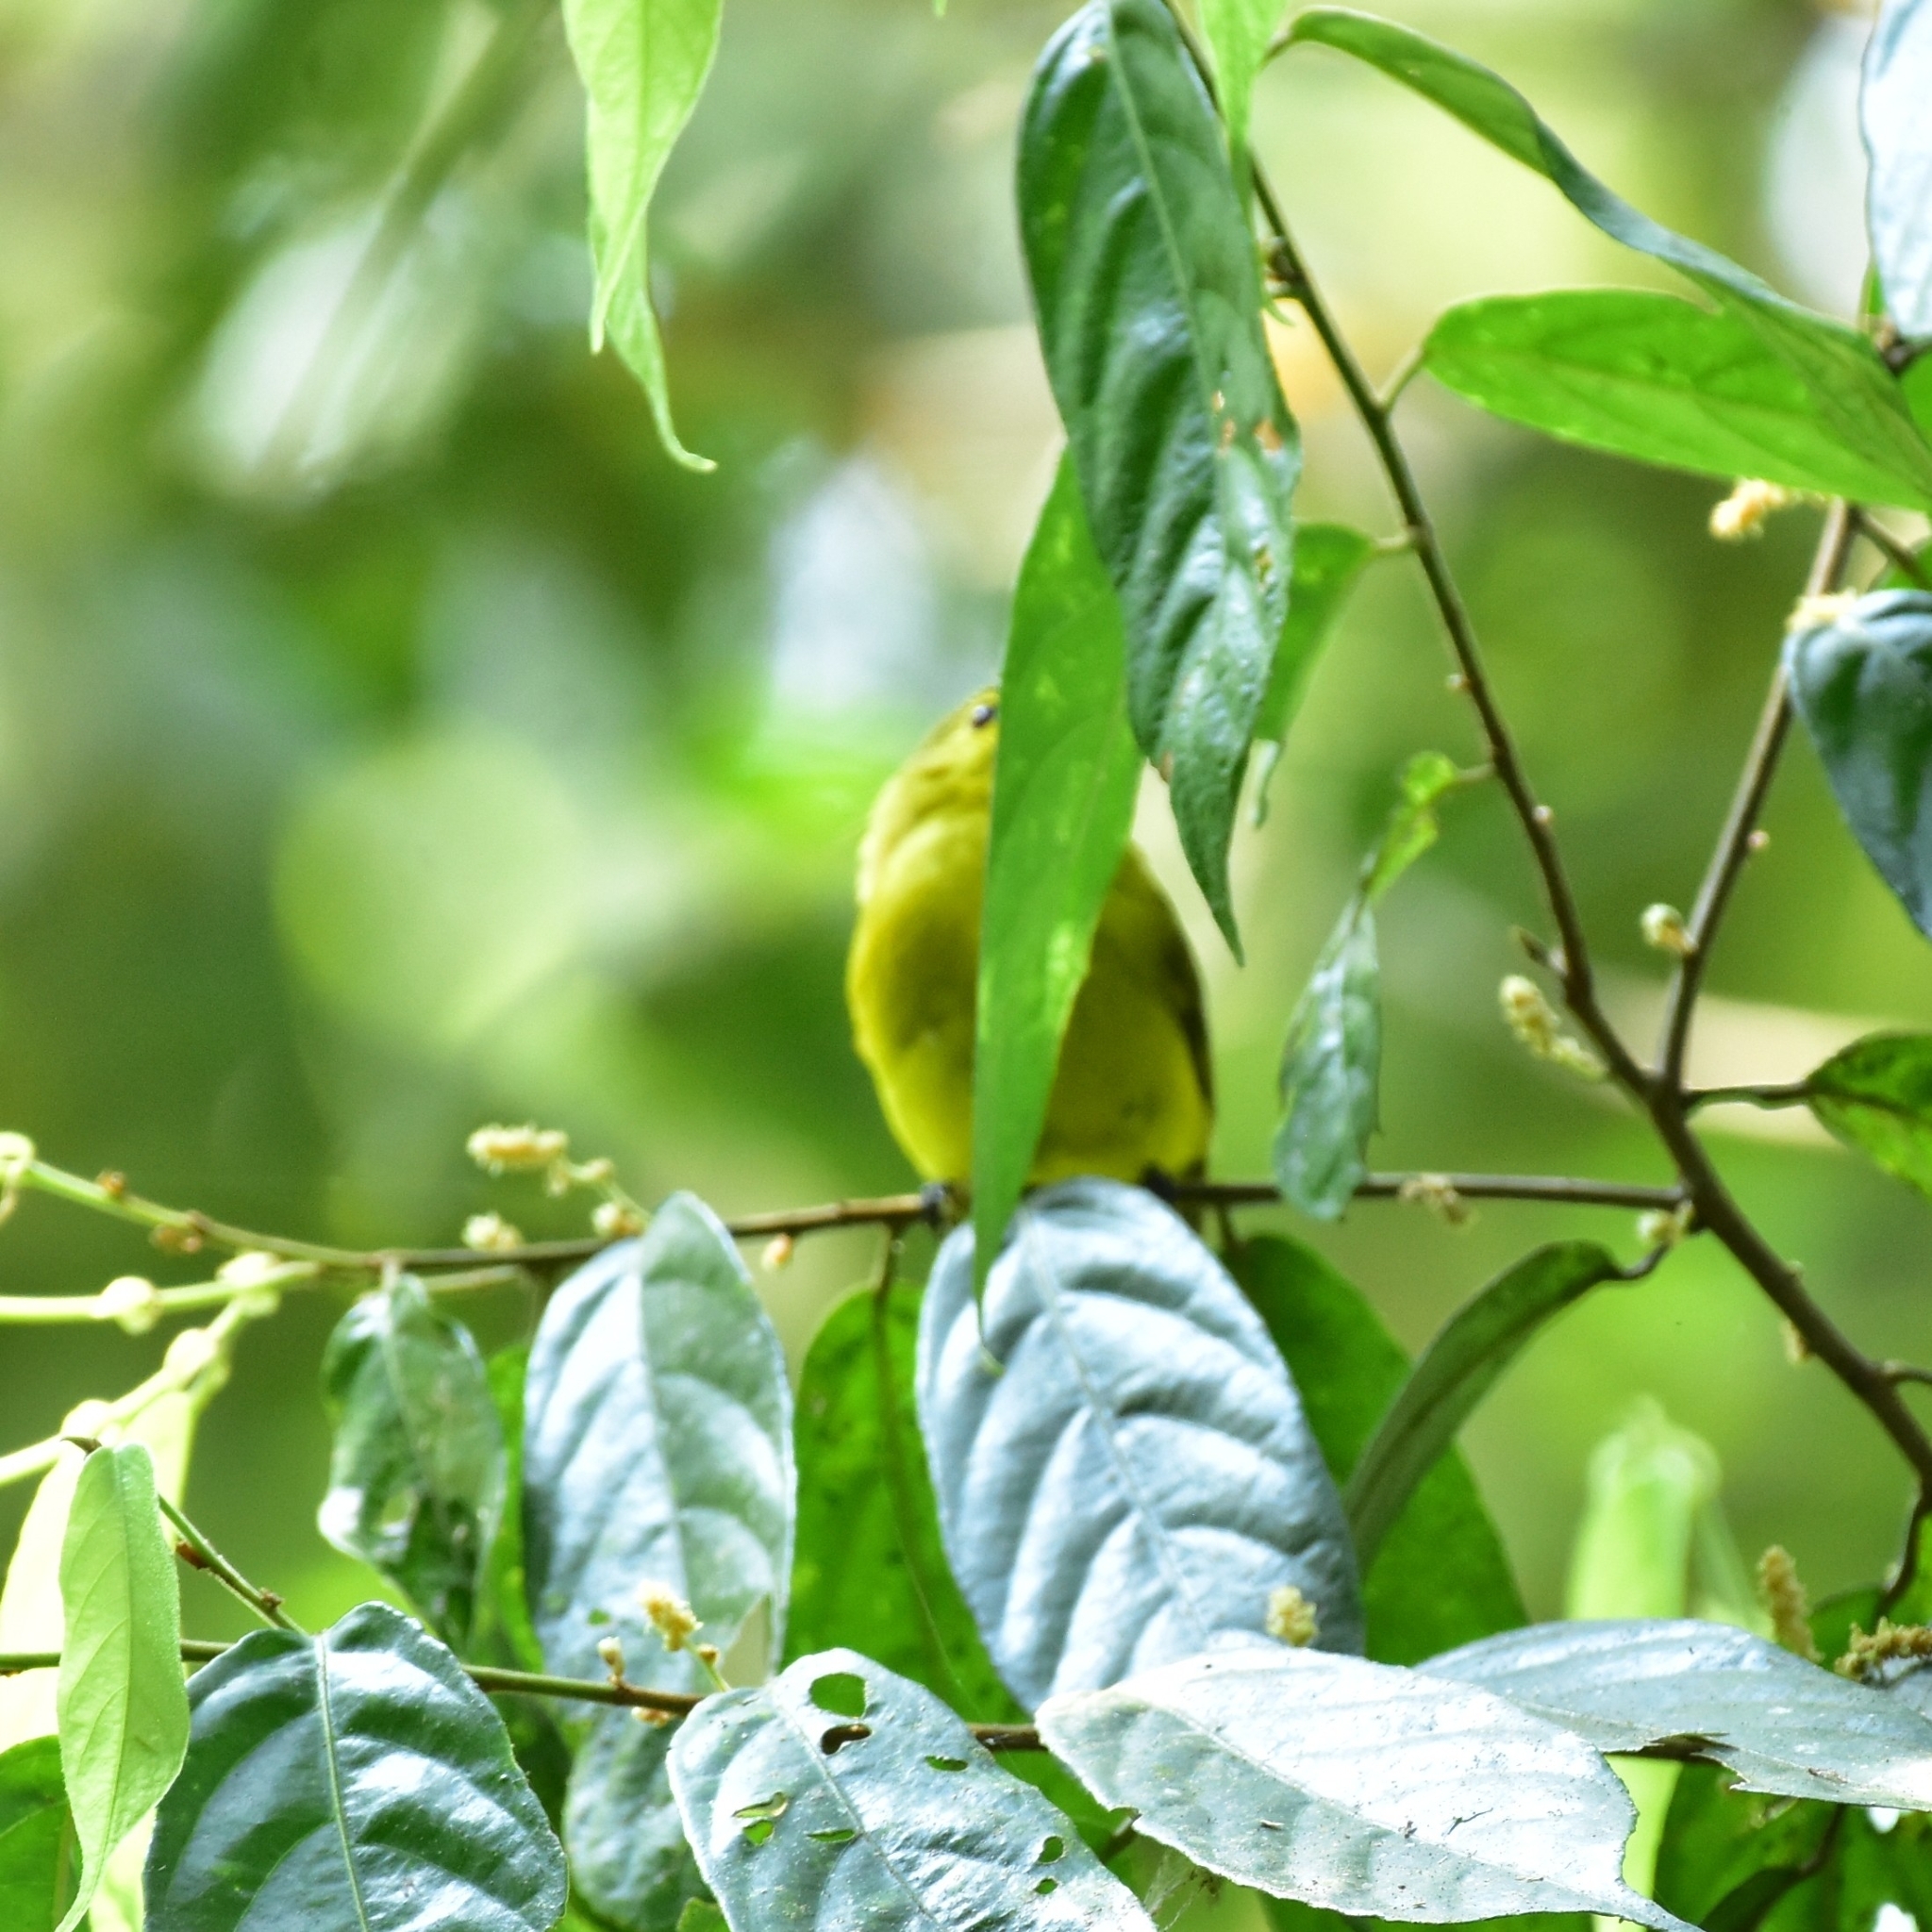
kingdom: Animalia
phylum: Chordata
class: Aves
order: Passeriformes
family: Pycnonotidae
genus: Acritillas
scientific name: Acritillas indica
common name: Yellow-browed bulbul
